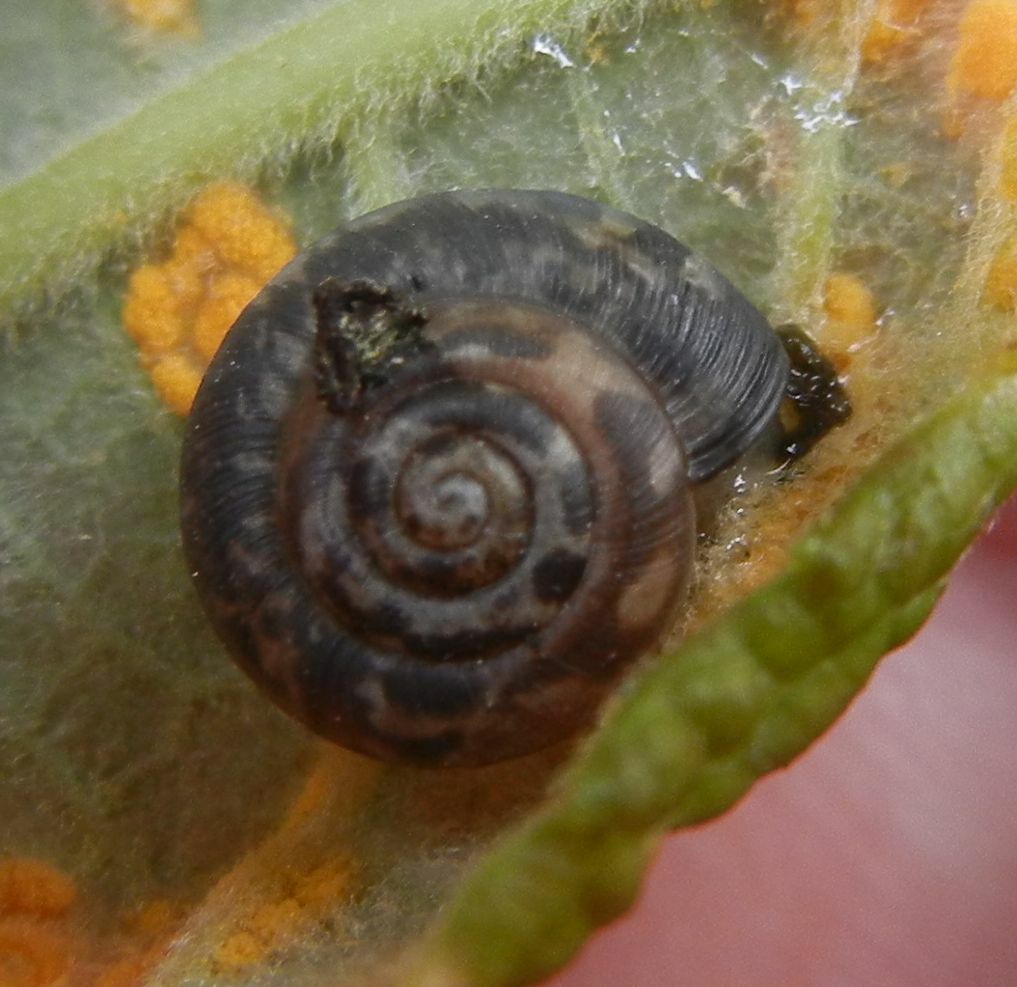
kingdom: Animalia
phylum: Mollusca
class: Gastropoda
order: Stylommatophora
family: Hygromiidae
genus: Trochulus
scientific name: Trochulus striolatus
